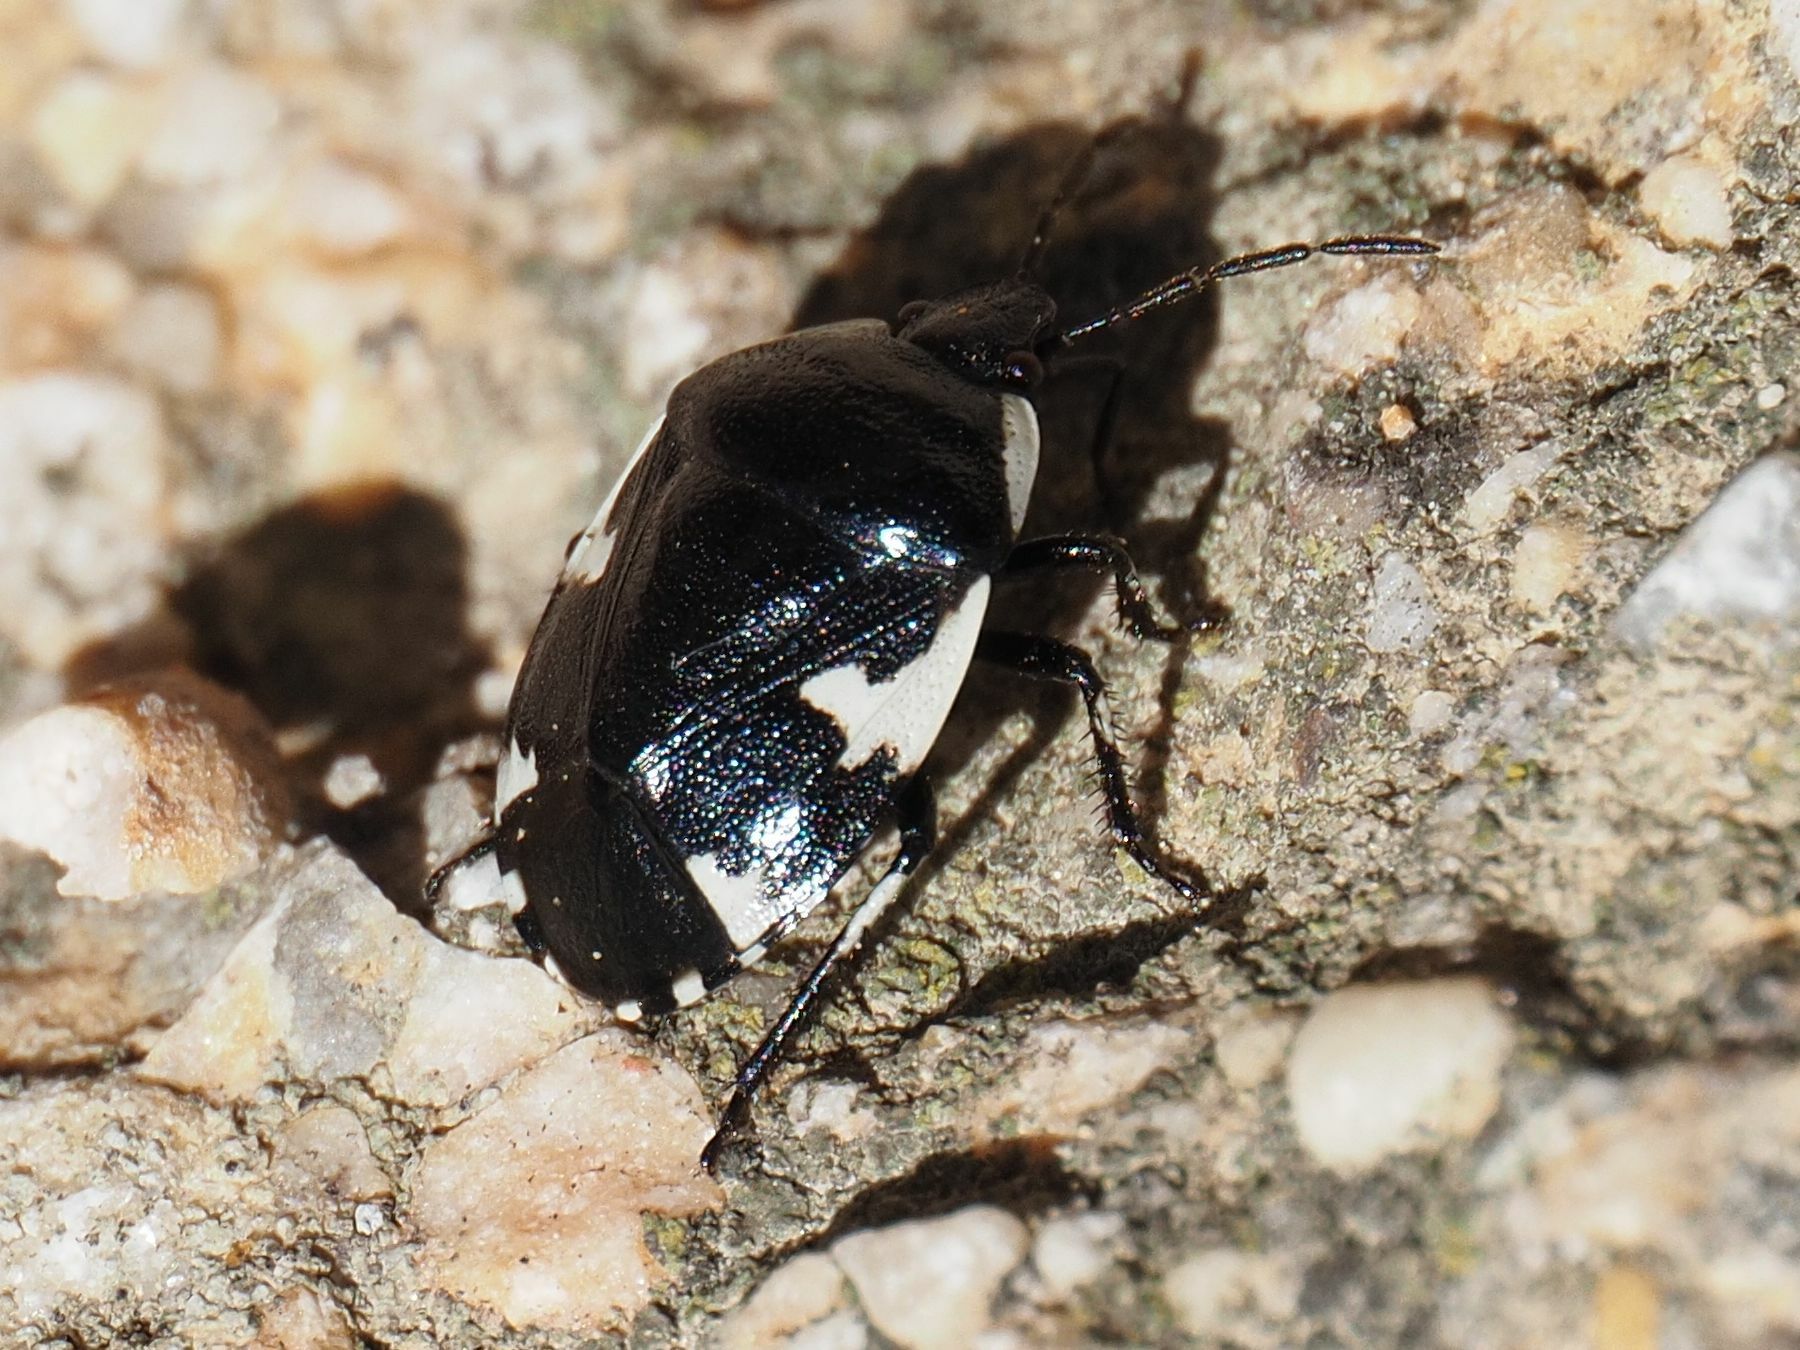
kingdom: Animalia
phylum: Arthropoda
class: Insecta
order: Hemiptera
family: Cydnidae
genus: Tritomegas
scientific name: Tritomegas sexmaculatus
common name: Rambur's pied shieldbug
